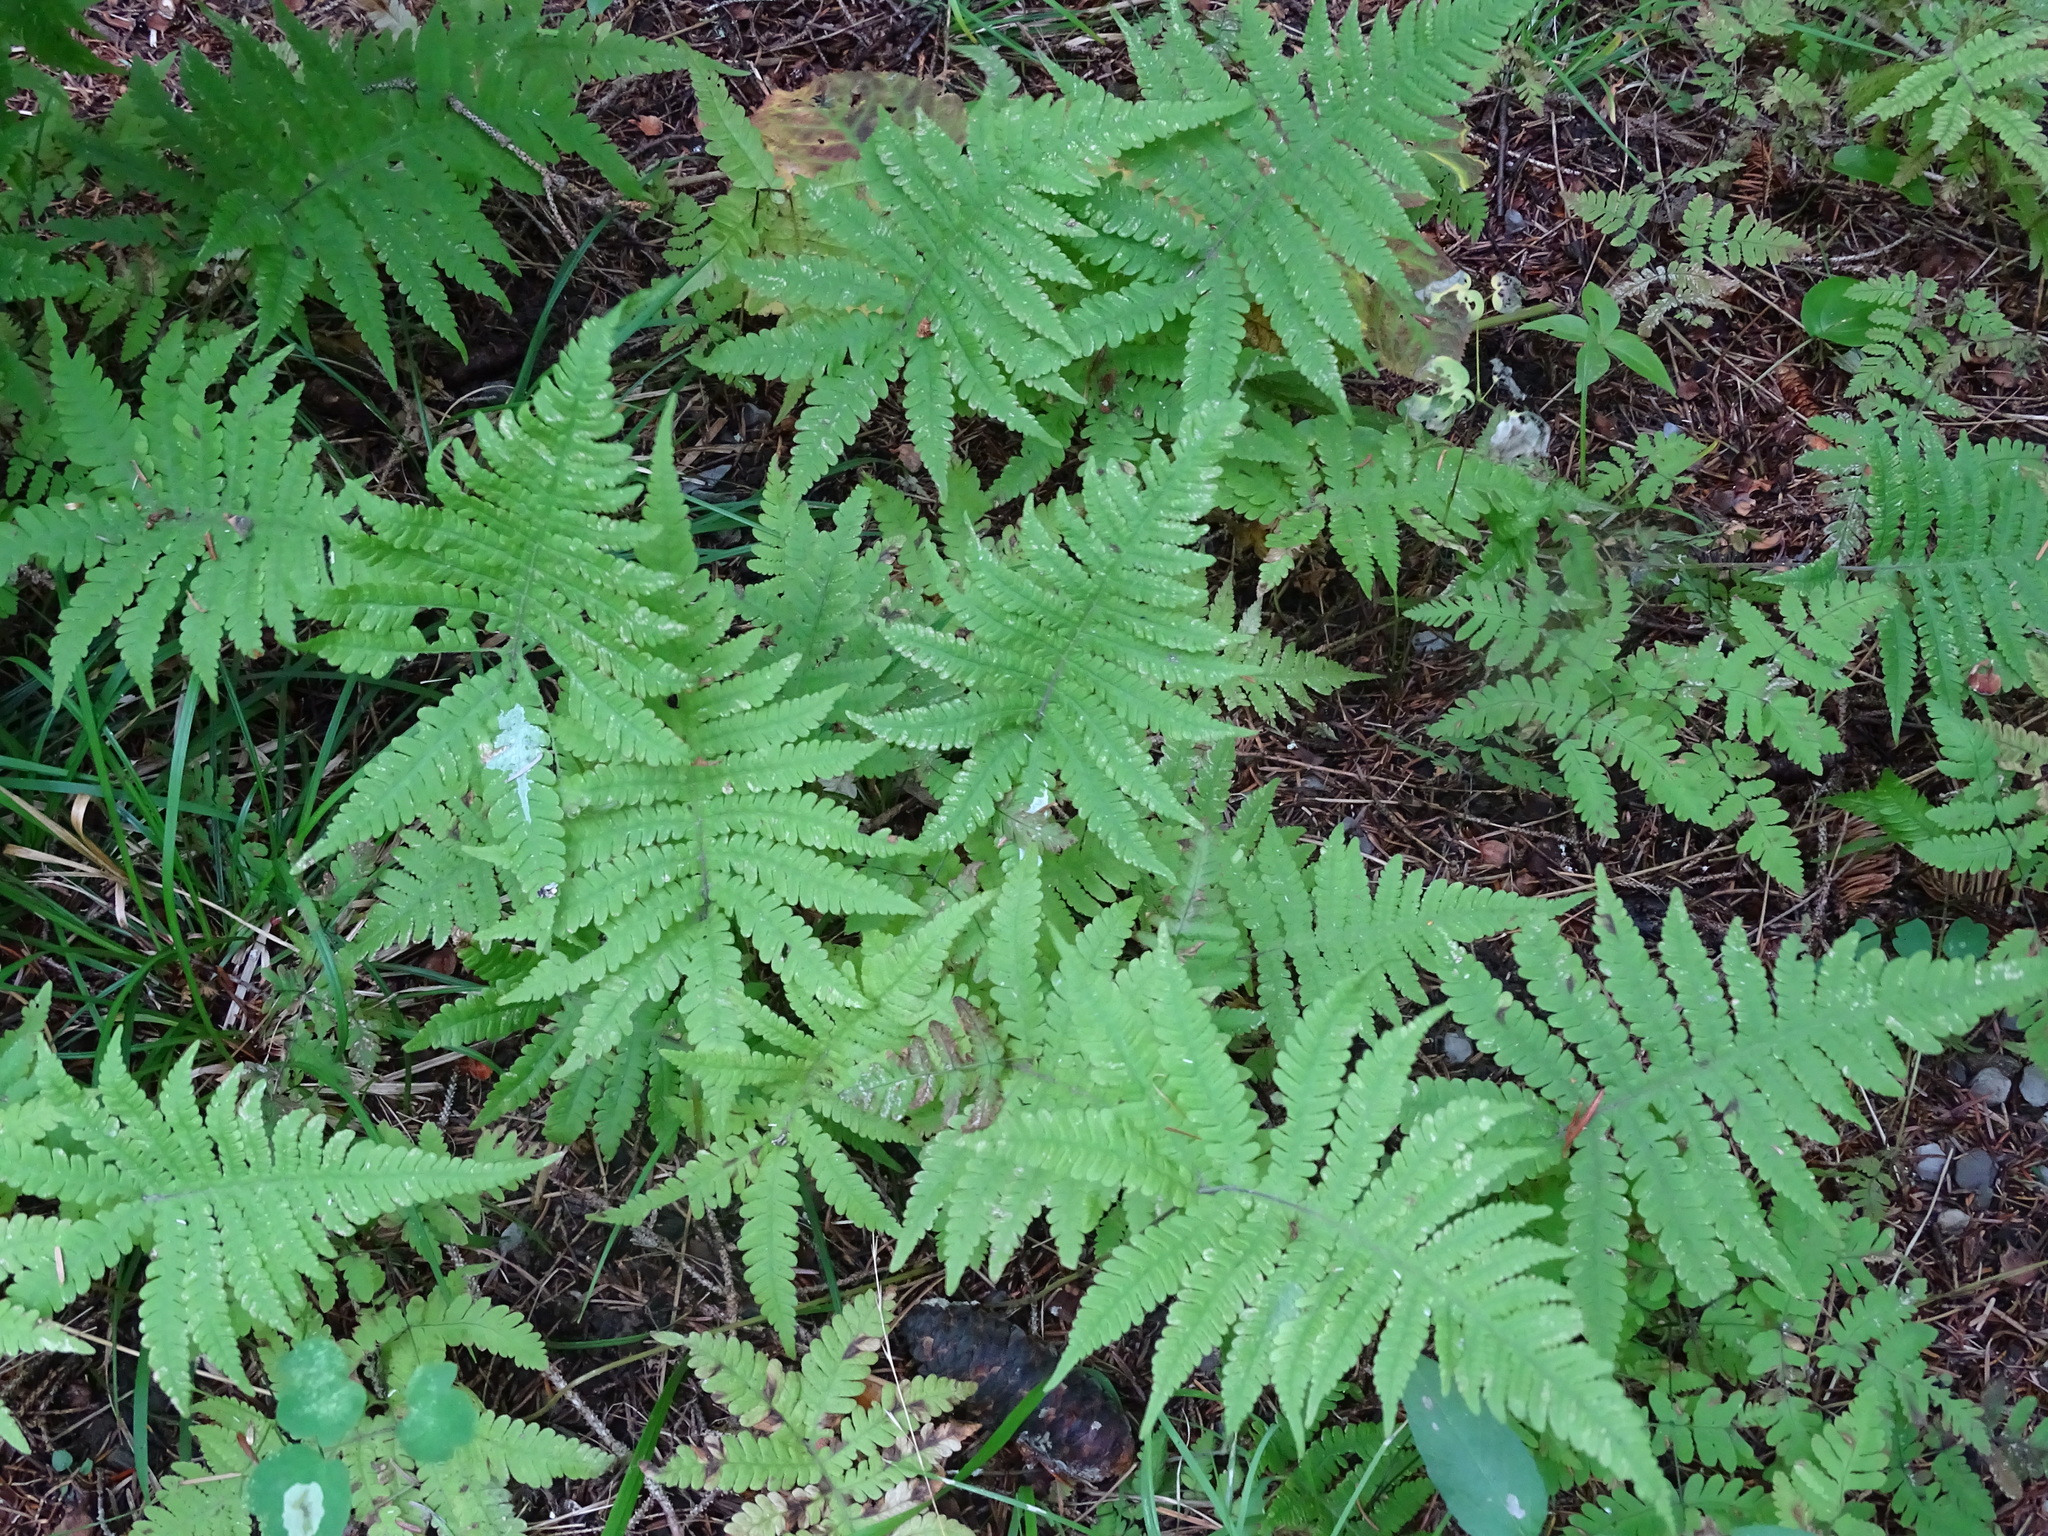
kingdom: Plantae
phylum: Tracheophyta
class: Polypodiopsida
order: Polypodiales
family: Thelypteridaceae
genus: Phegopteris
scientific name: Phegopteris connectilis
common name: Beech fern
